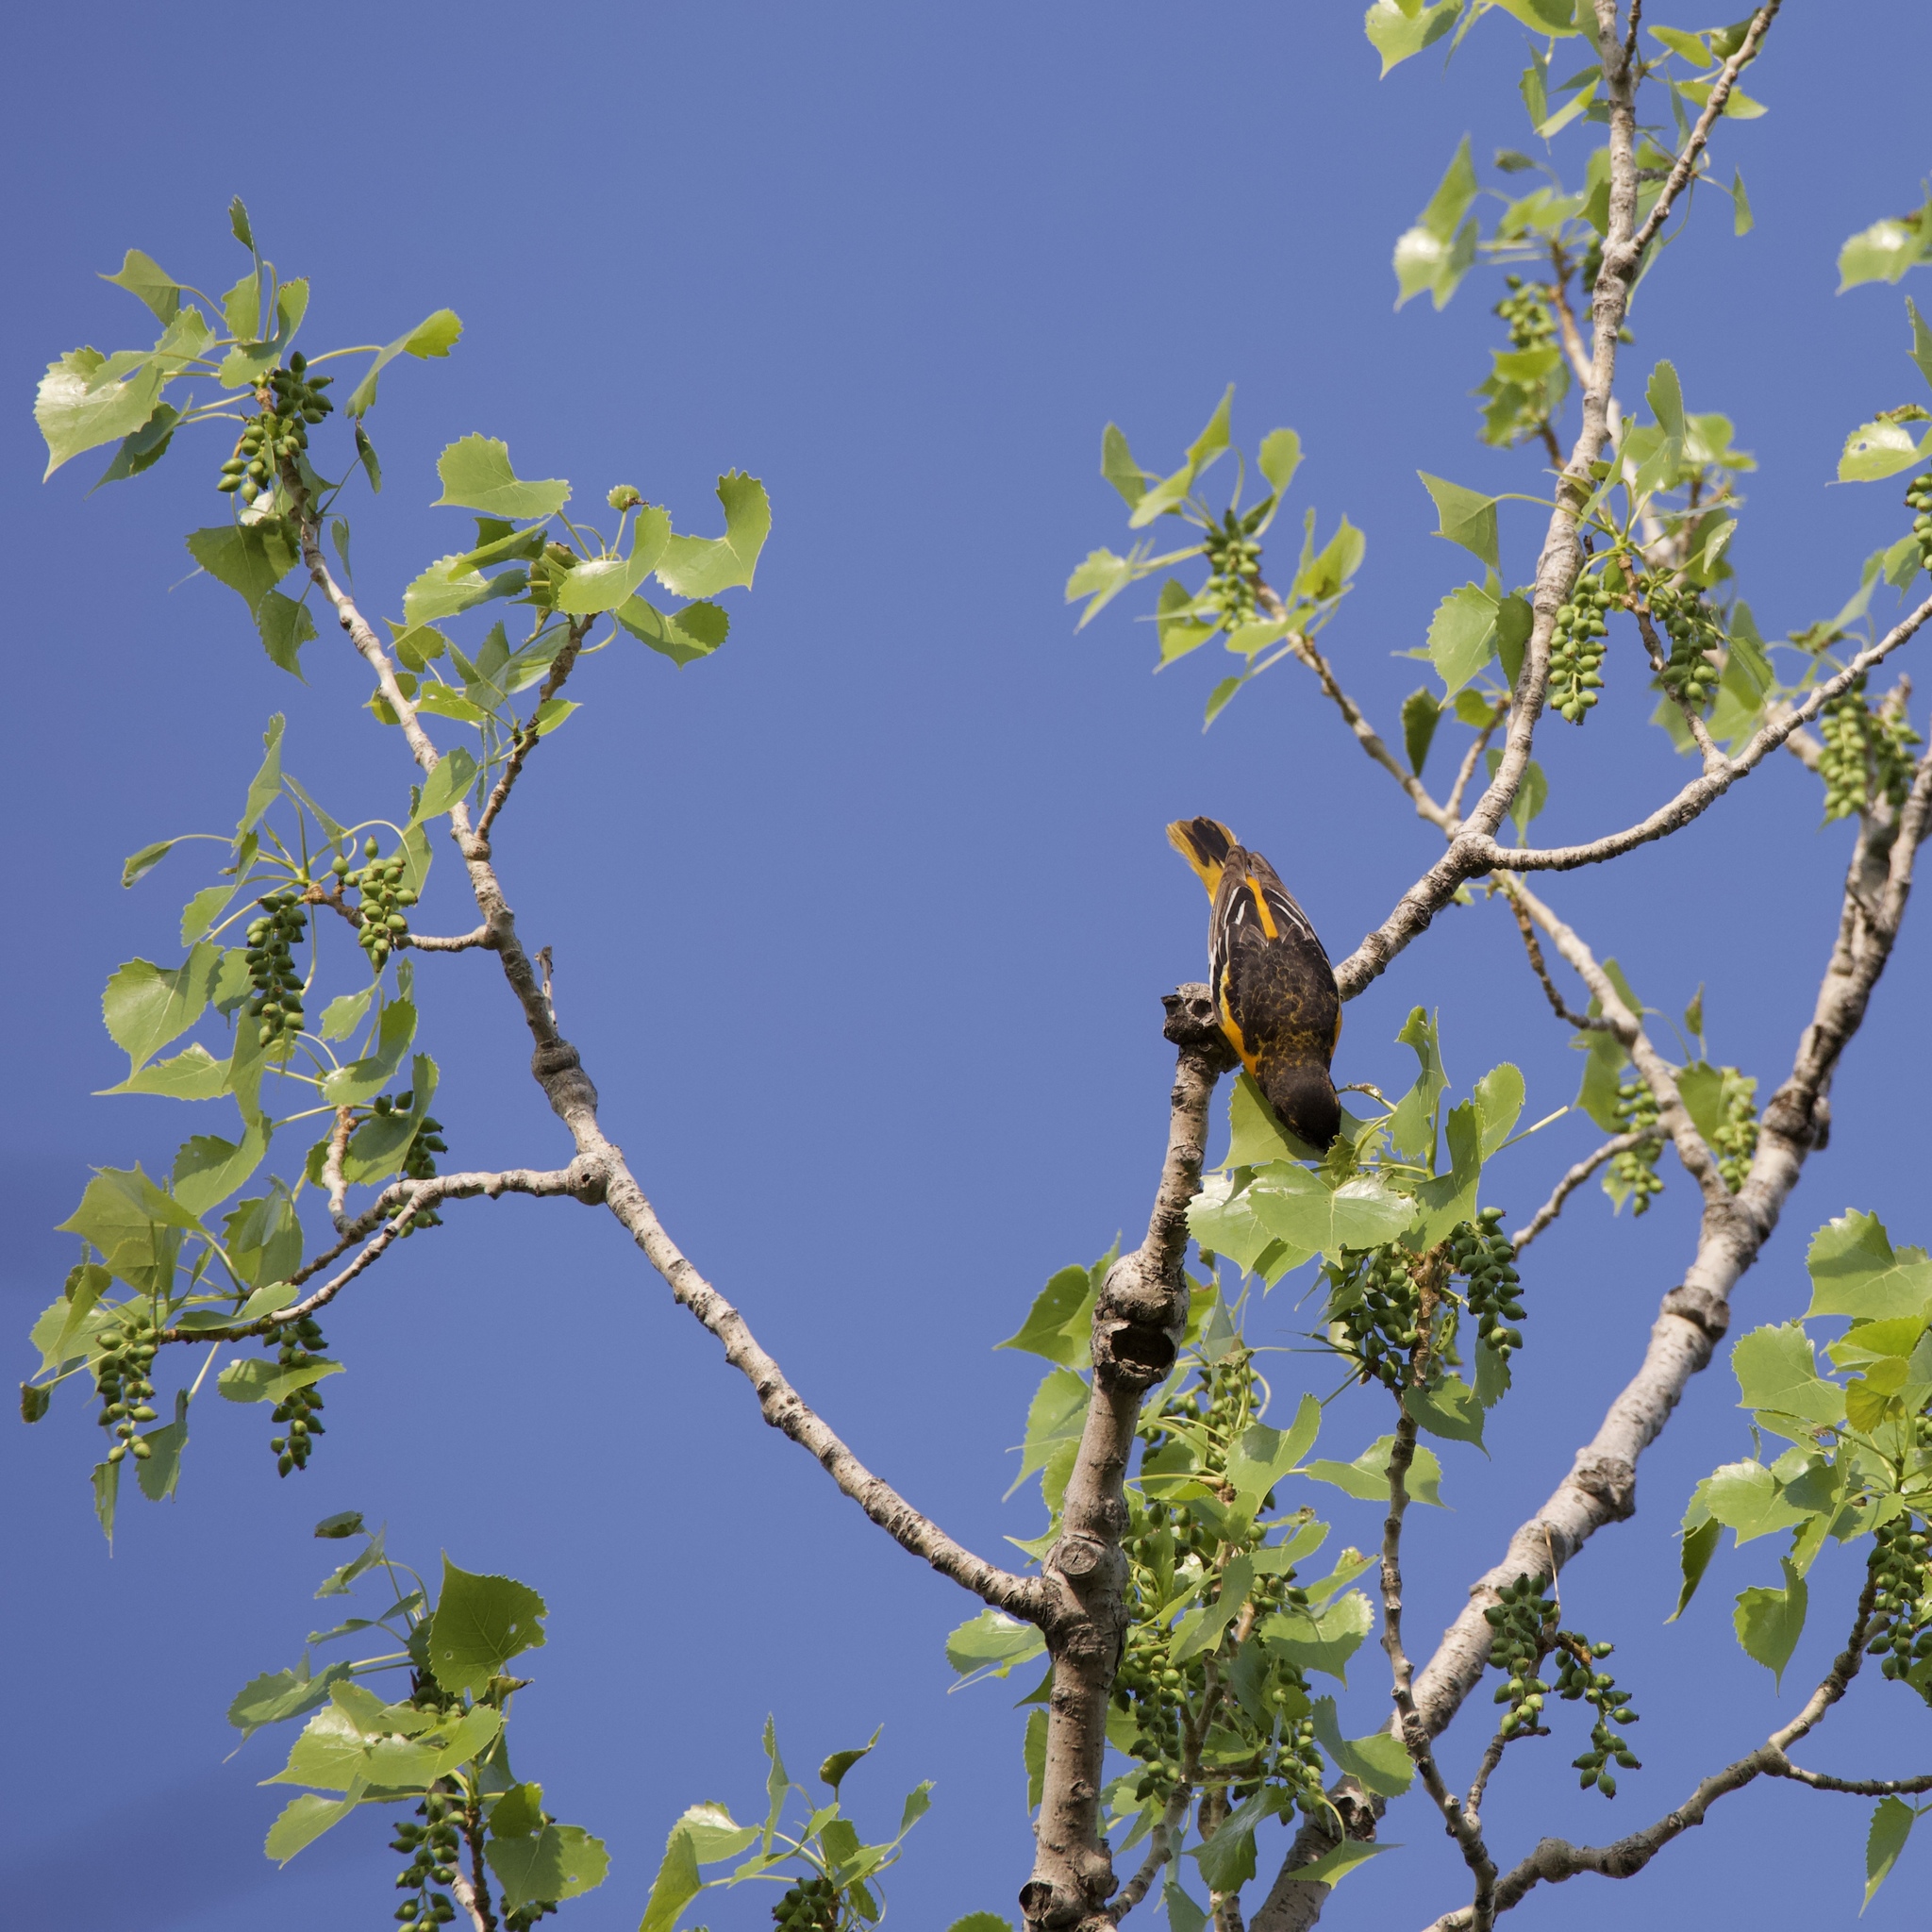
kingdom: Animalia
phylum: Chordata
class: Aves
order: Passeriformes
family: Icteridae
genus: Icterus
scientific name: Icterus galbula
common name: Baltimore oriole
